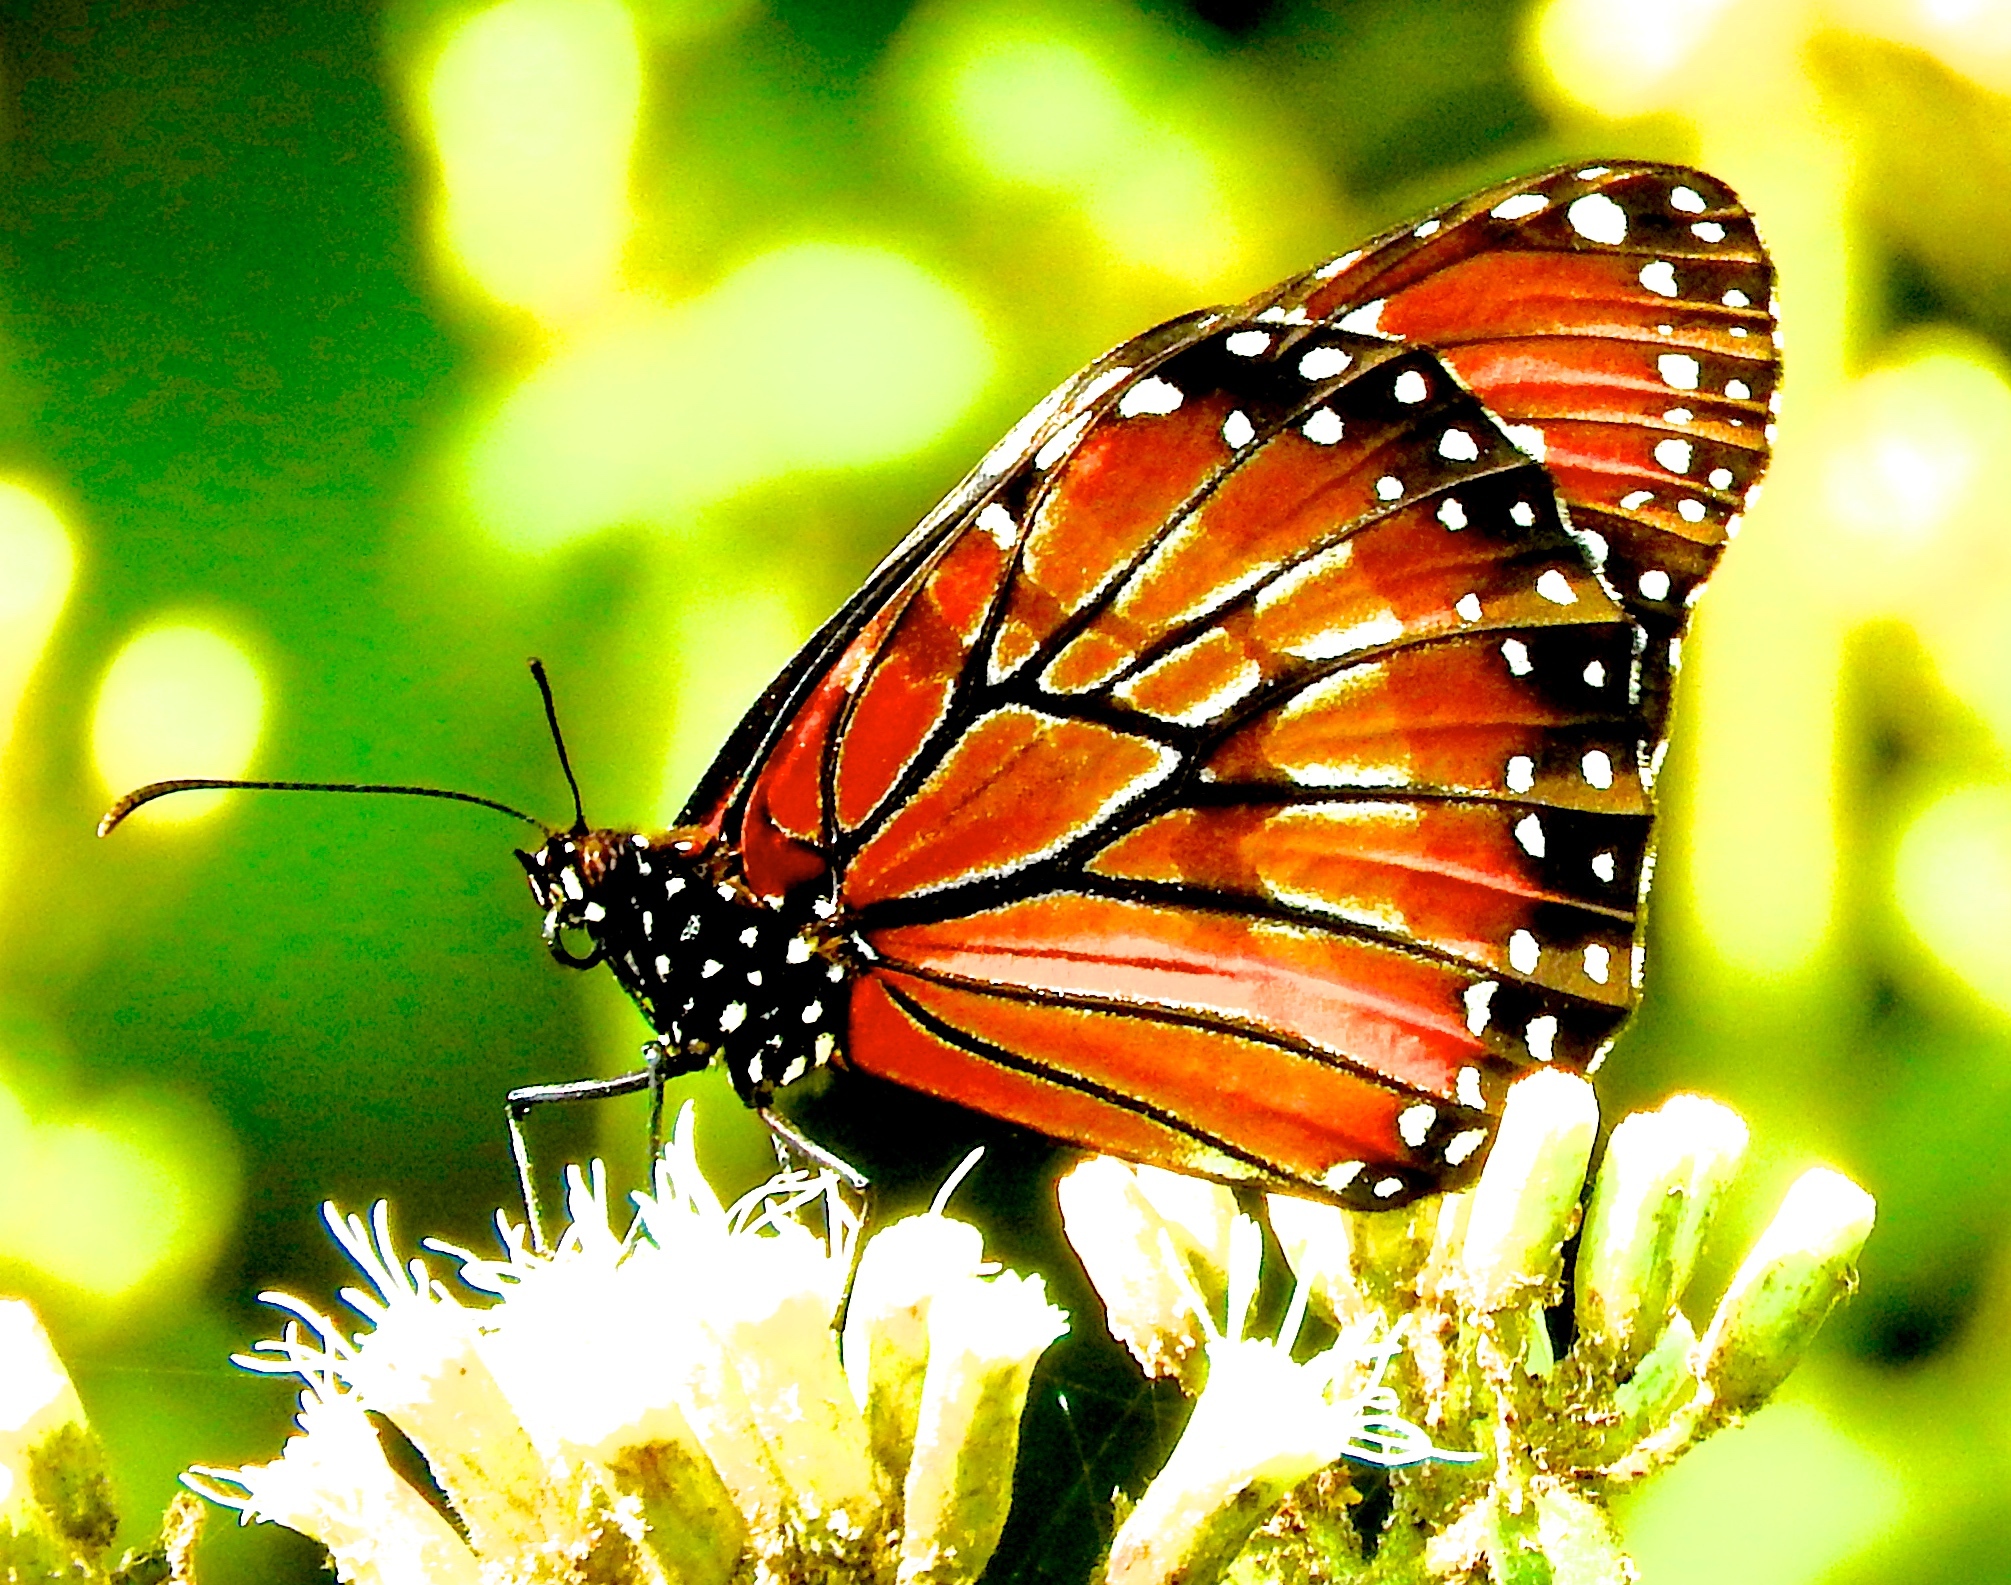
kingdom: Animalia
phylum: Arthropoda
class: Insecta
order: Lepidoptera
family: Nymphalidae
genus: Danaus
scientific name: Danaus eresimus
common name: Soldier
